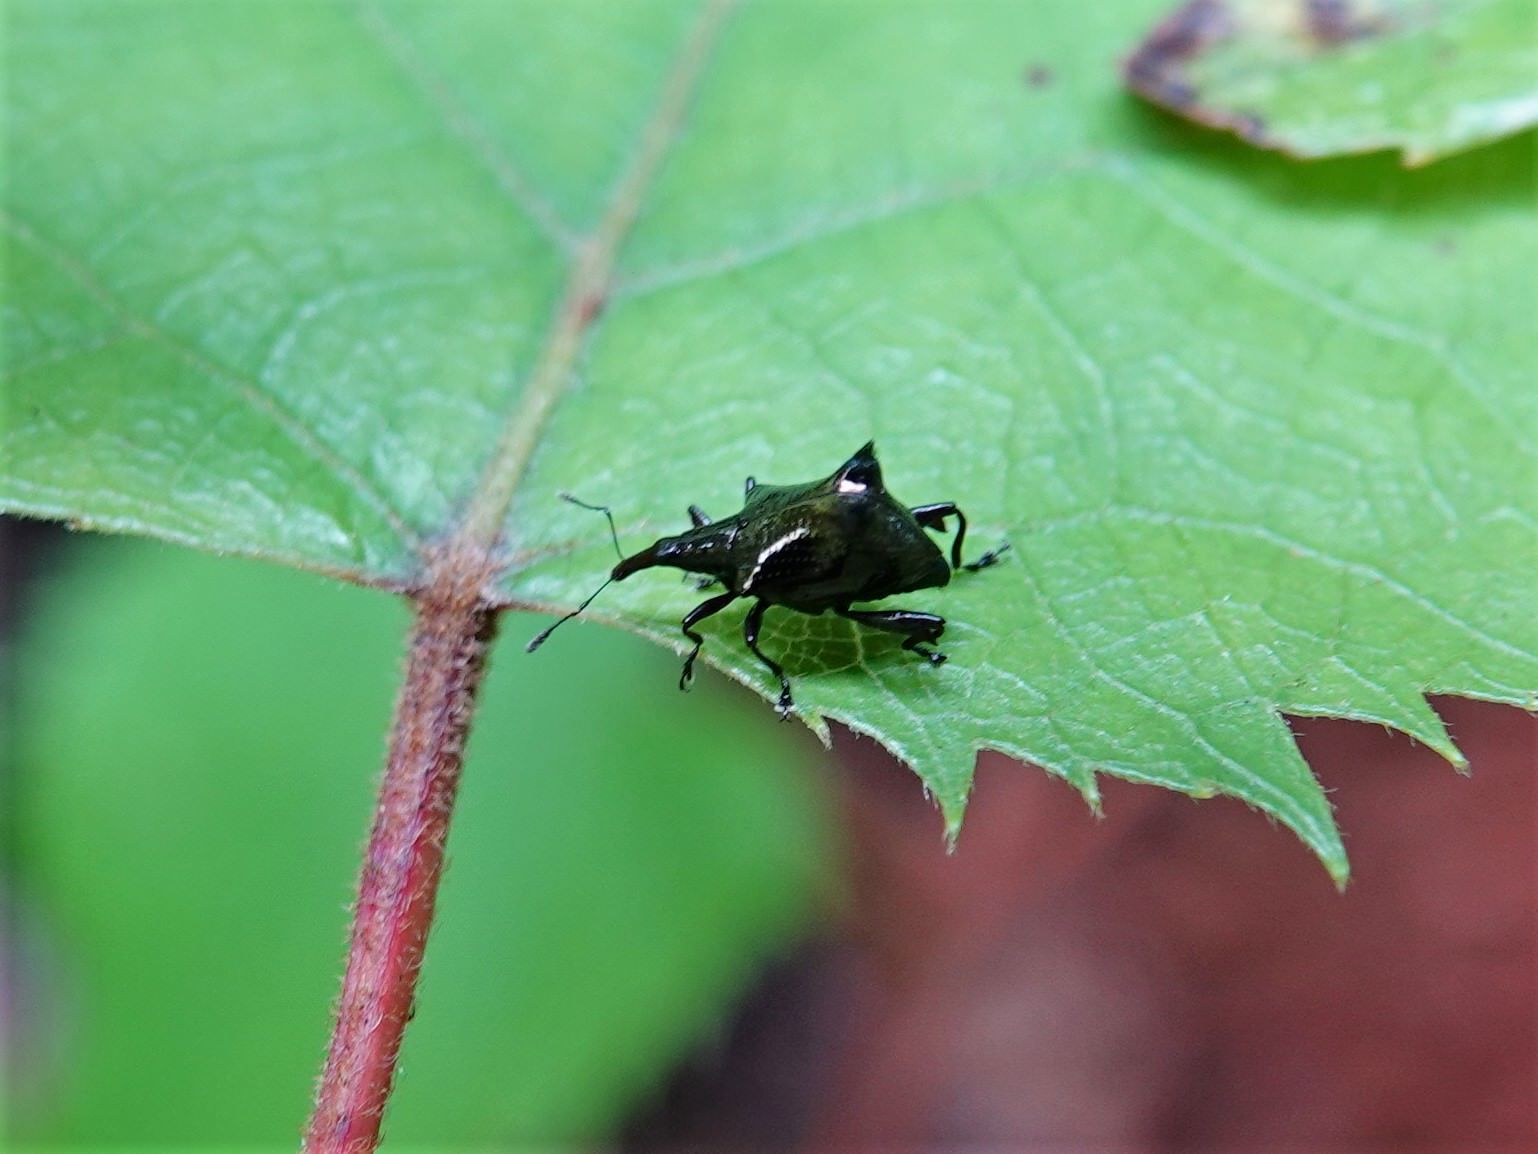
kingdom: Animalia
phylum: Arthropoda
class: Insecta
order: Coleoptera
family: Curculionidae
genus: Scolopterus
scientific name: Scolopterus penicillatus
